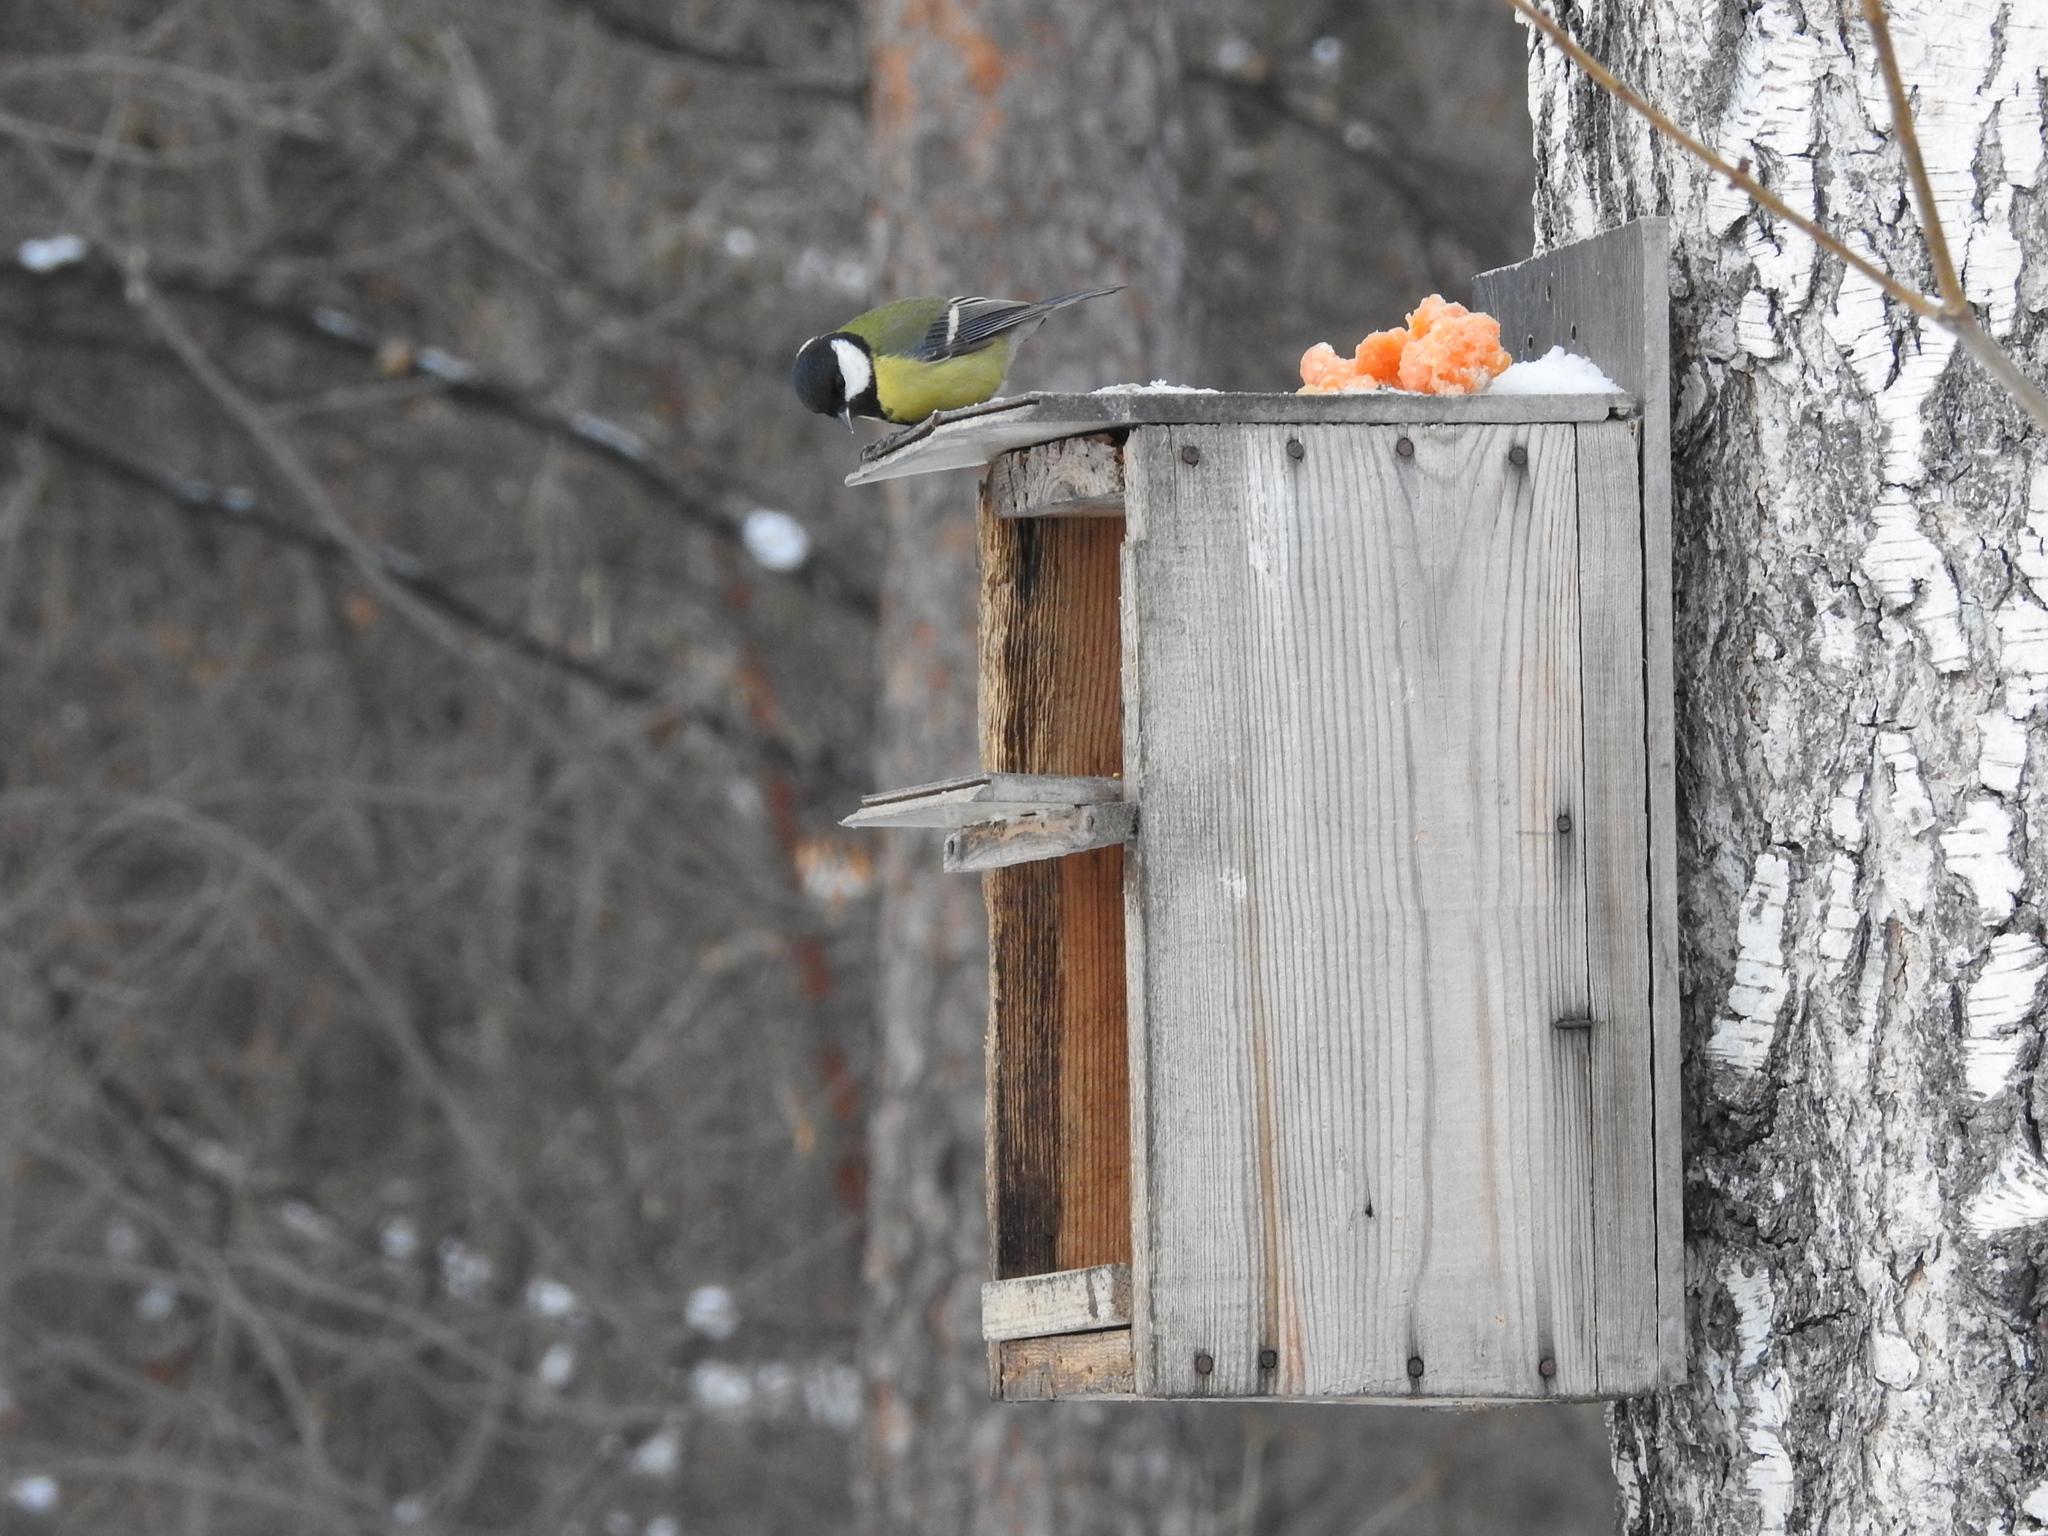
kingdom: Animalia
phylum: Chordata
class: Aves
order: Passeriformes
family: Paridae
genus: Parus
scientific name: Parus major
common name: Great tit
